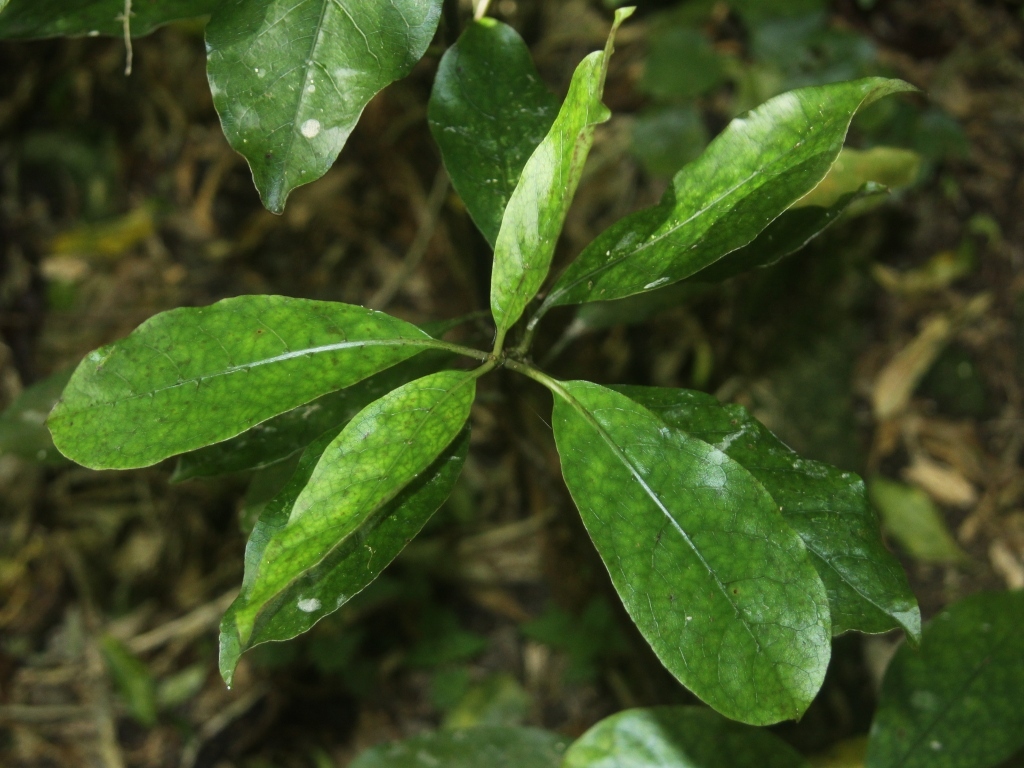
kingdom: Plantae
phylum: Tracheophyta
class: Magnoliopsida
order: Gentianales
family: Rubiaceae
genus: Coprosma
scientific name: Coprosma autumnalis
